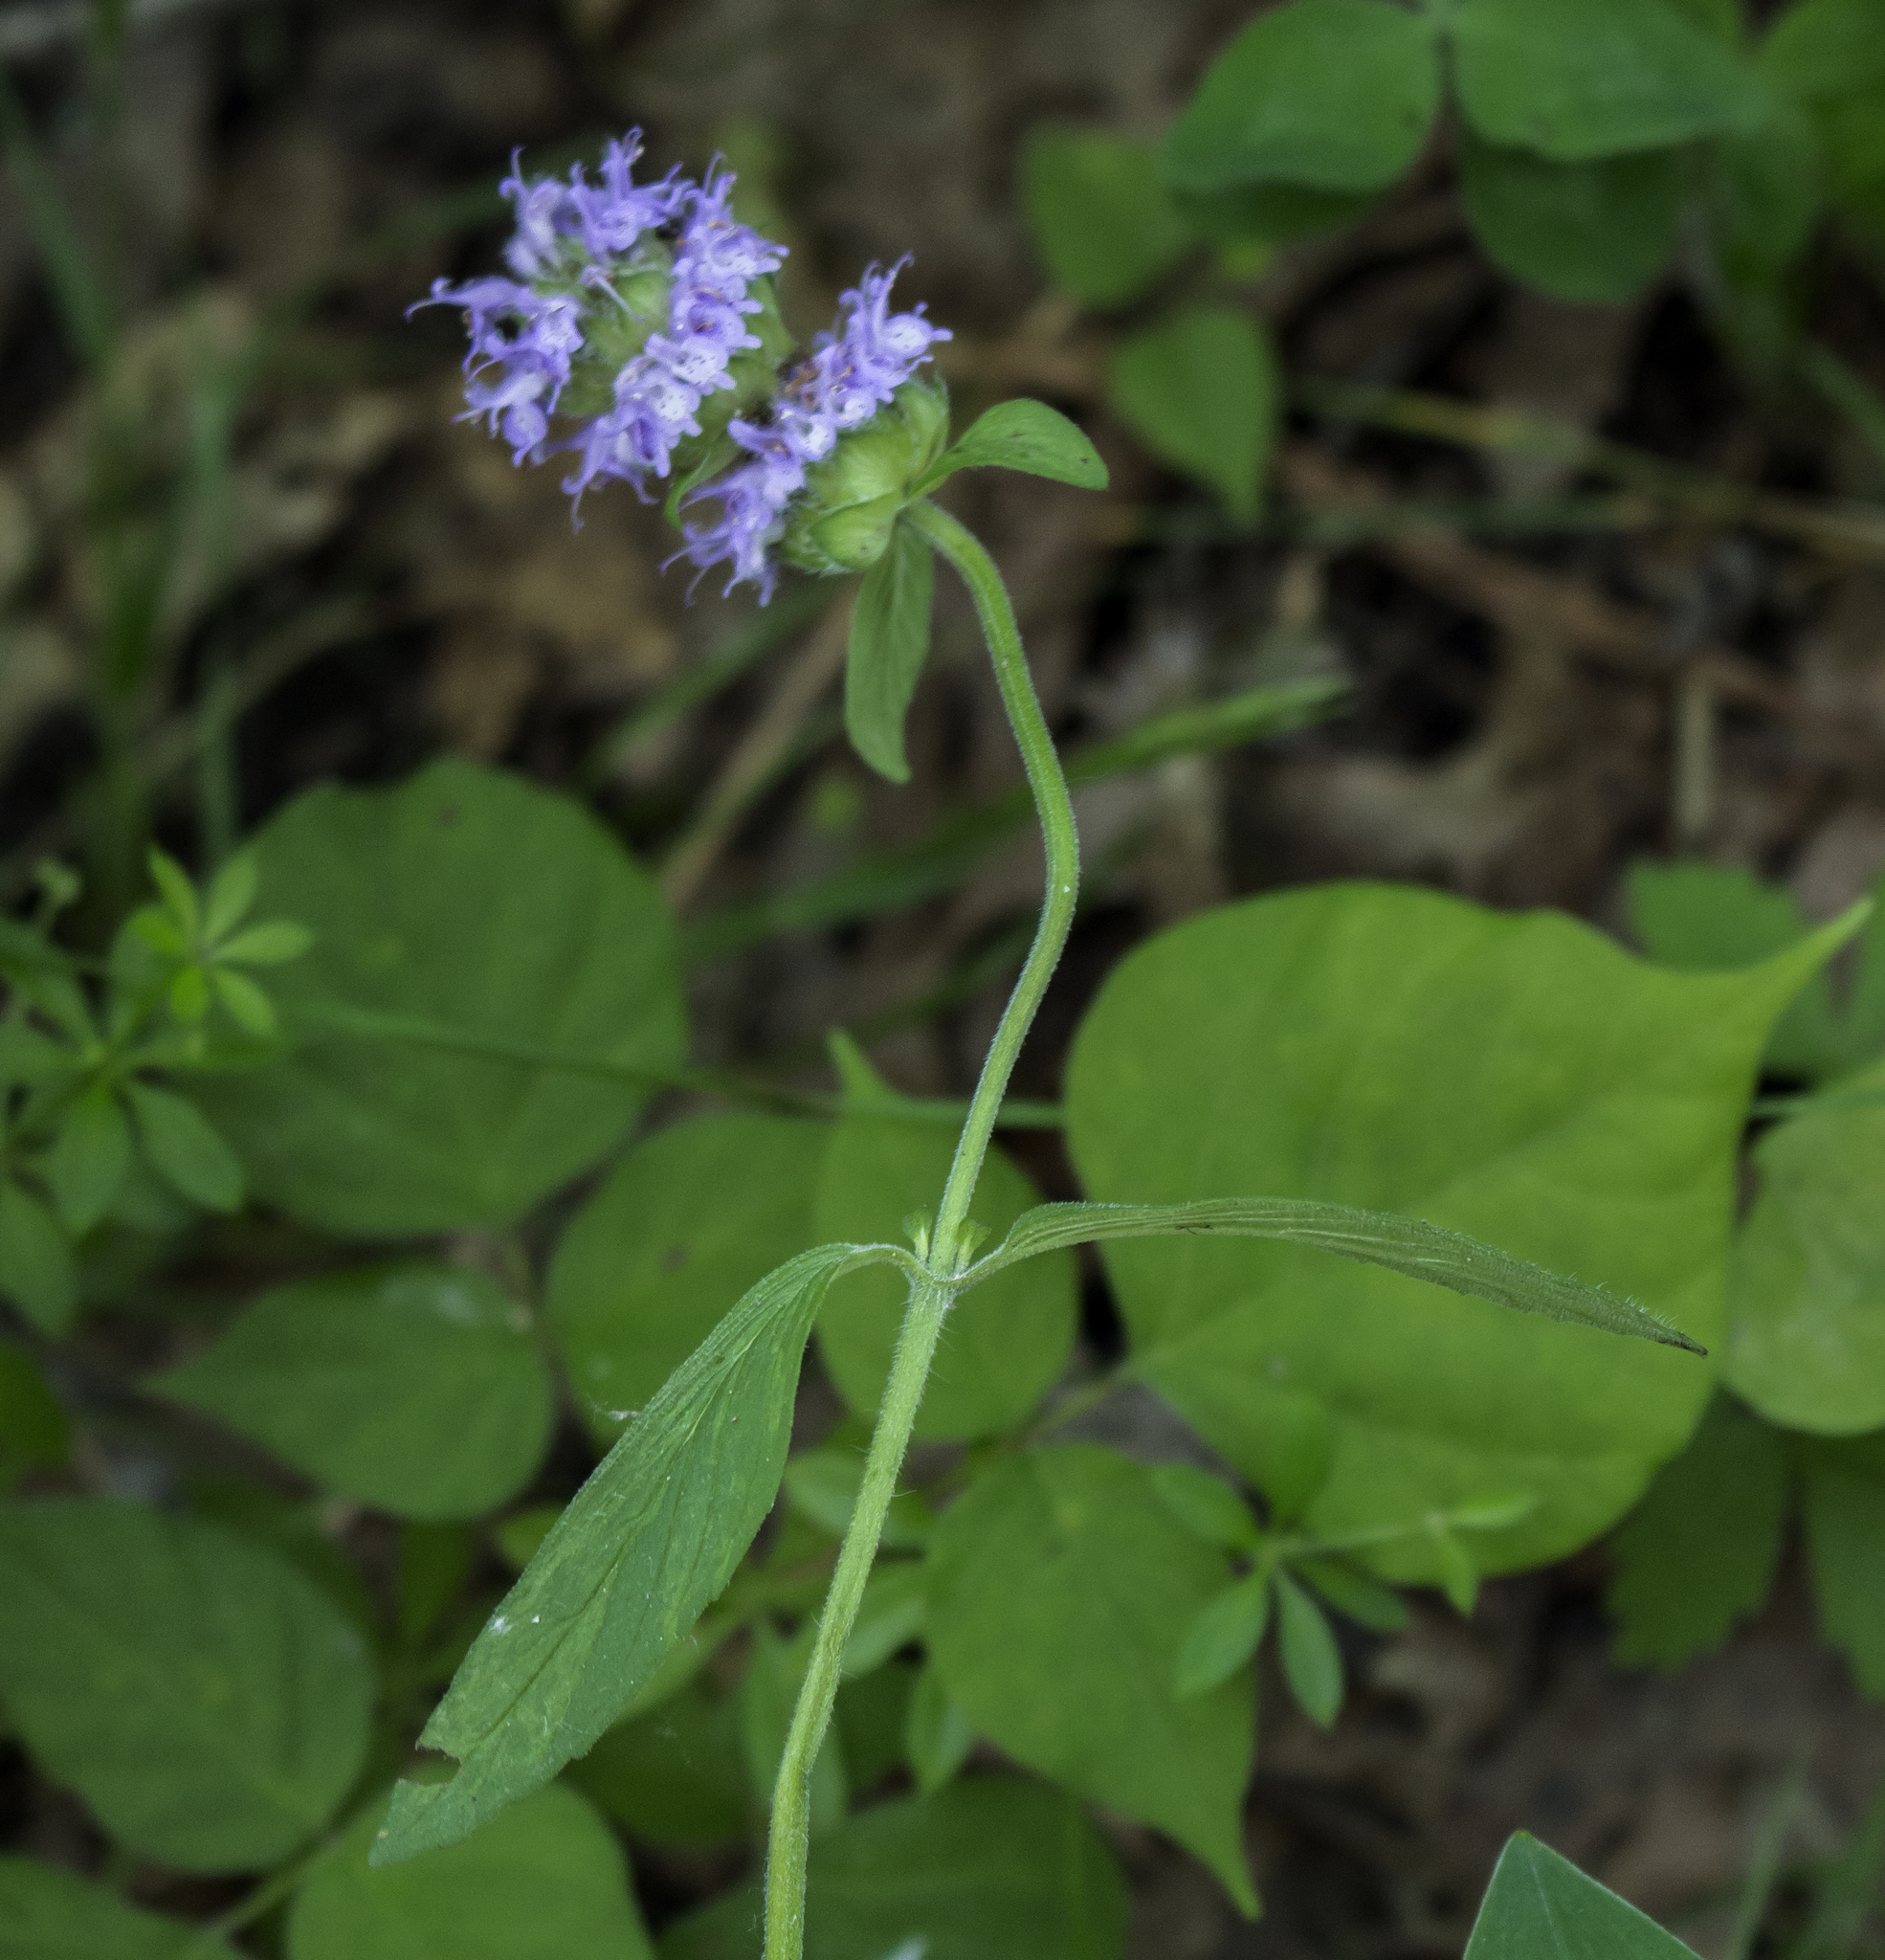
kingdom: Plantae
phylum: Tracheophyta
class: Magnoliopsida
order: Lamiales
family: Lamiaceae
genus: Blephilia
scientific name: Blephilia ciliata
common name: Downy blephilia
